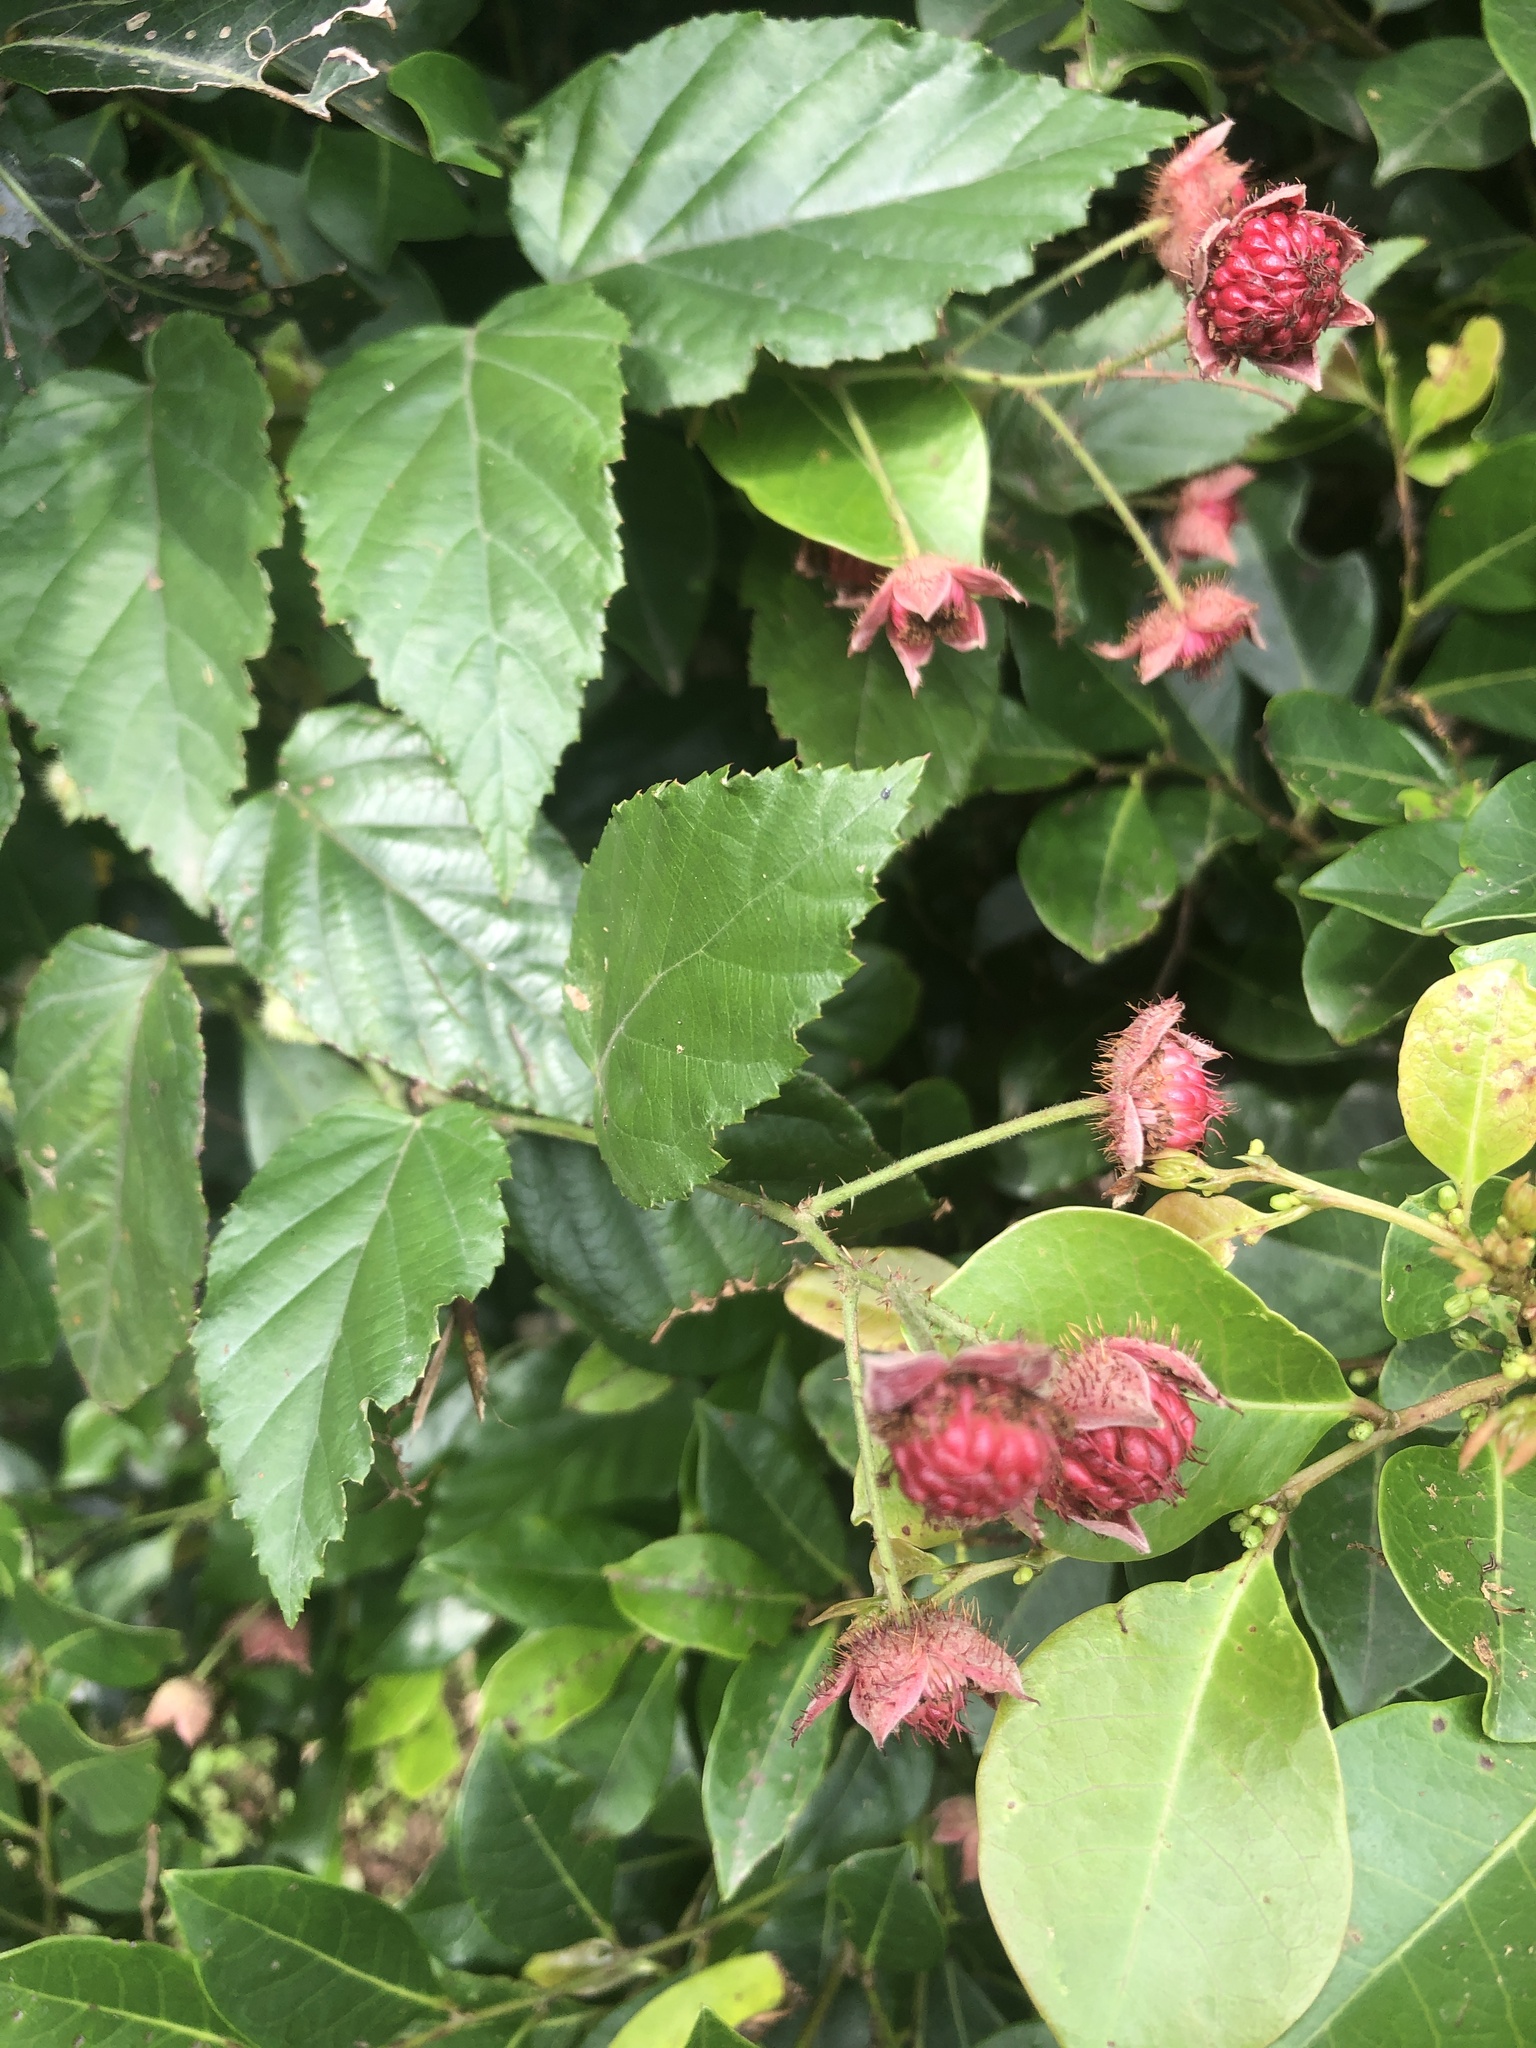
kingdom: Plantae
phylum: Tracheophyta
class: Magnoliopsida
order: Rosales
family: Rosaceae
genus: Rubus
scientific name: Rubus swinhoei
